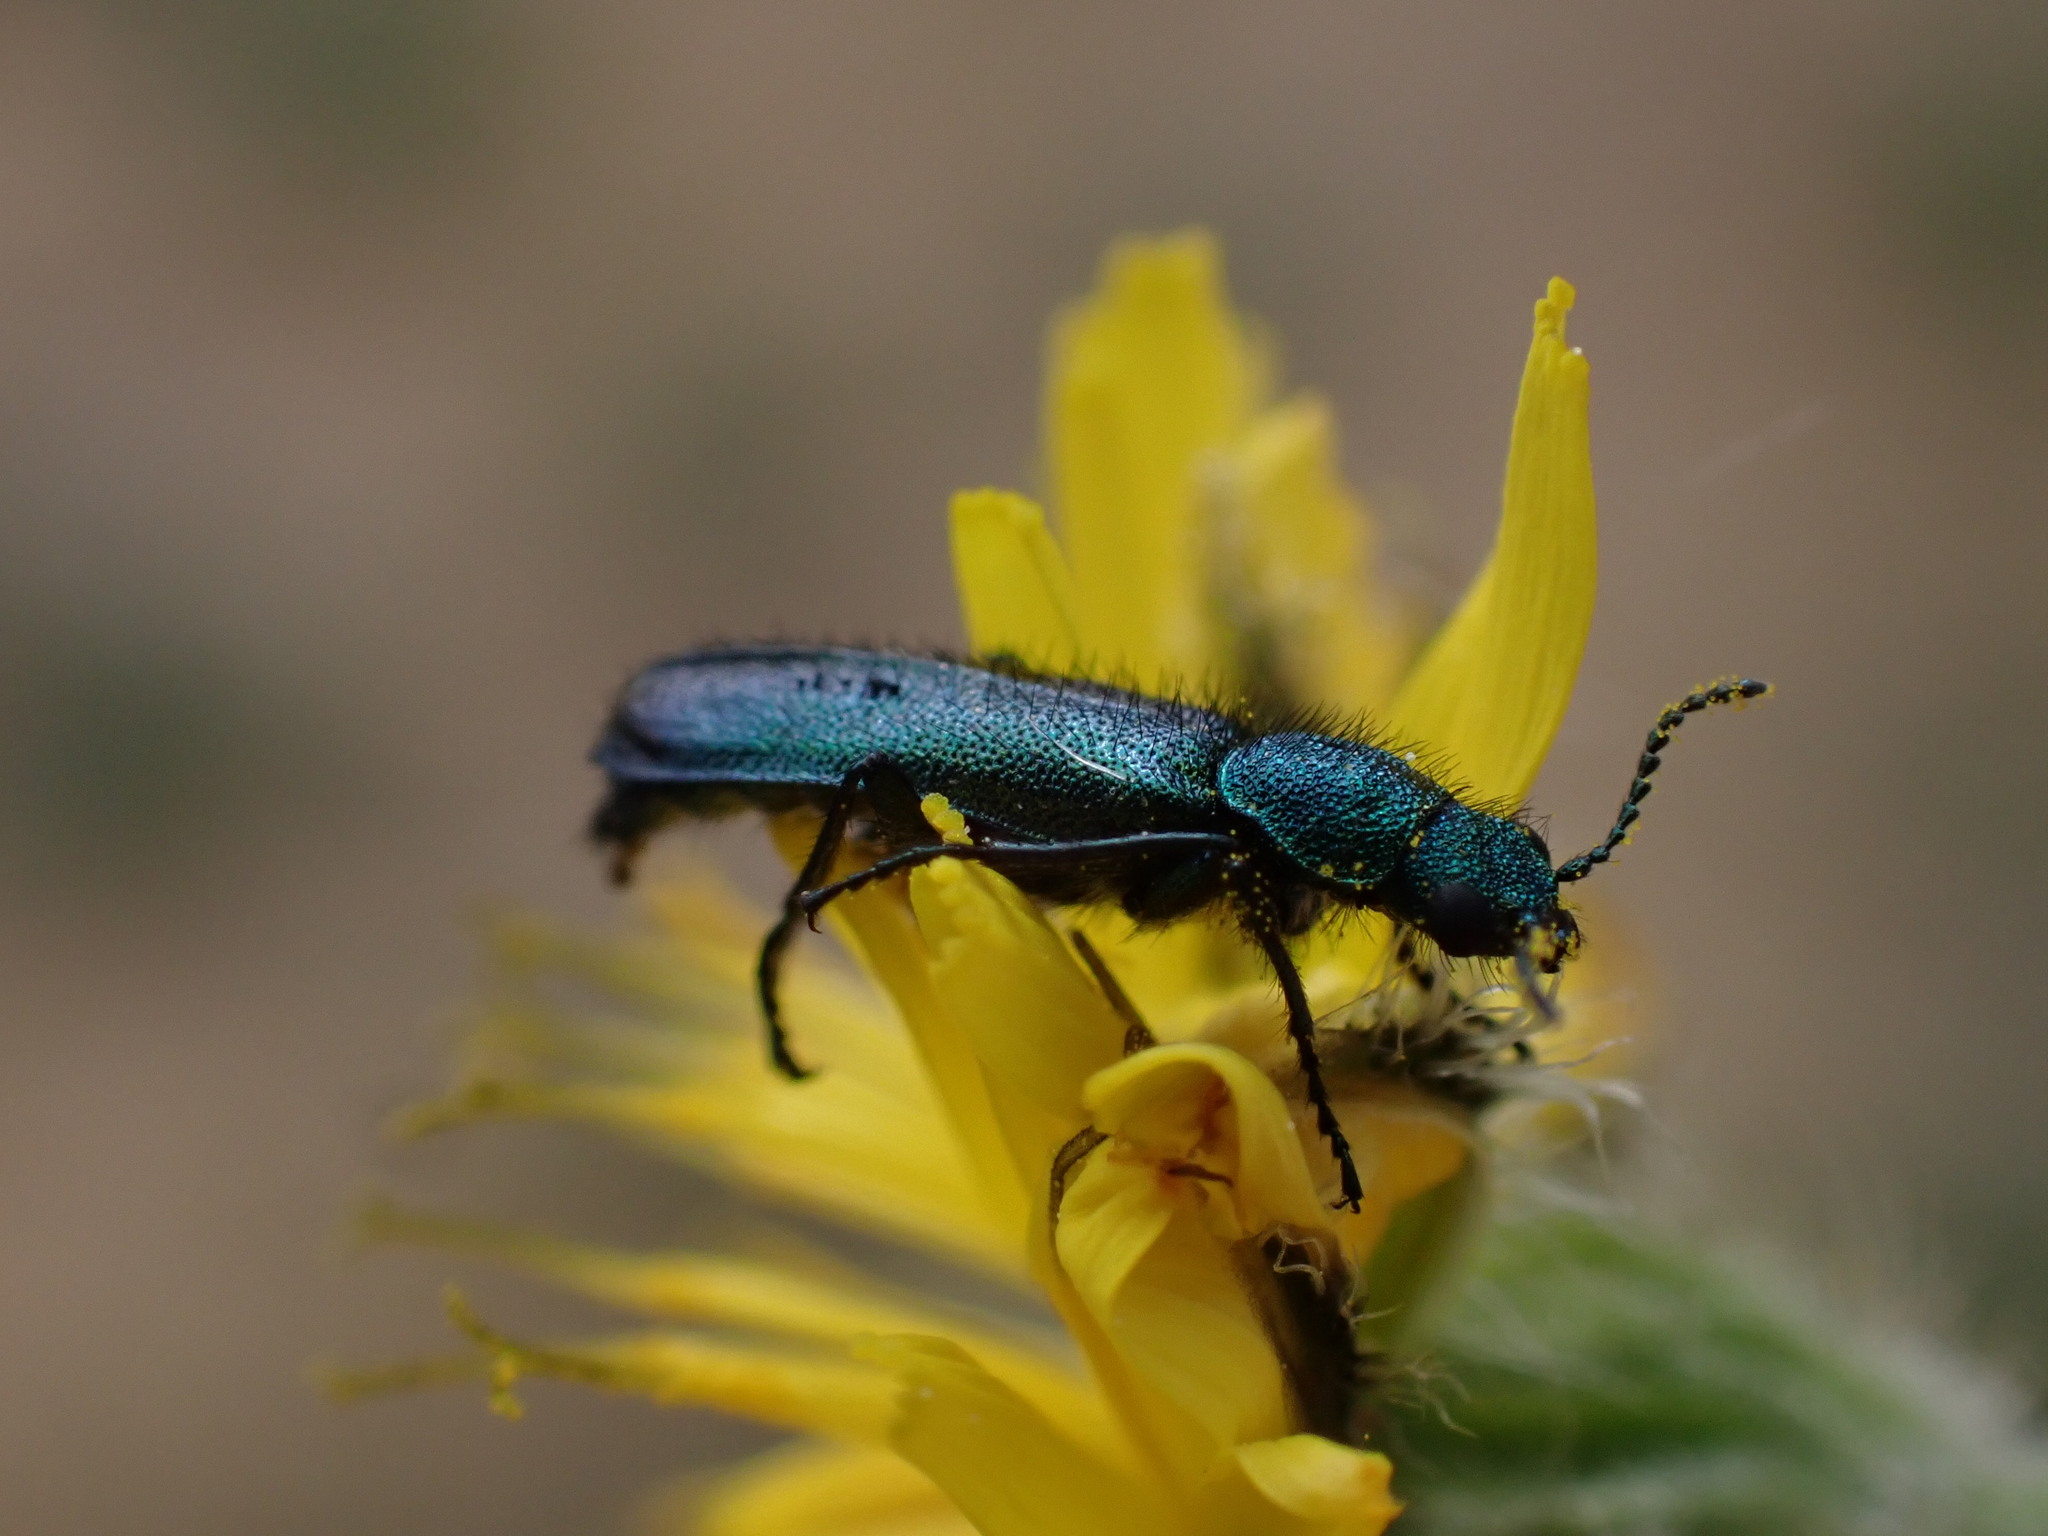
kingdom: Animalia
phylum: Arthropoda
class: Insecta
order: Coleoptera
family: Dasytidae
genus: Psilothrix
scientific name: Psilothrix viridicoerulea
